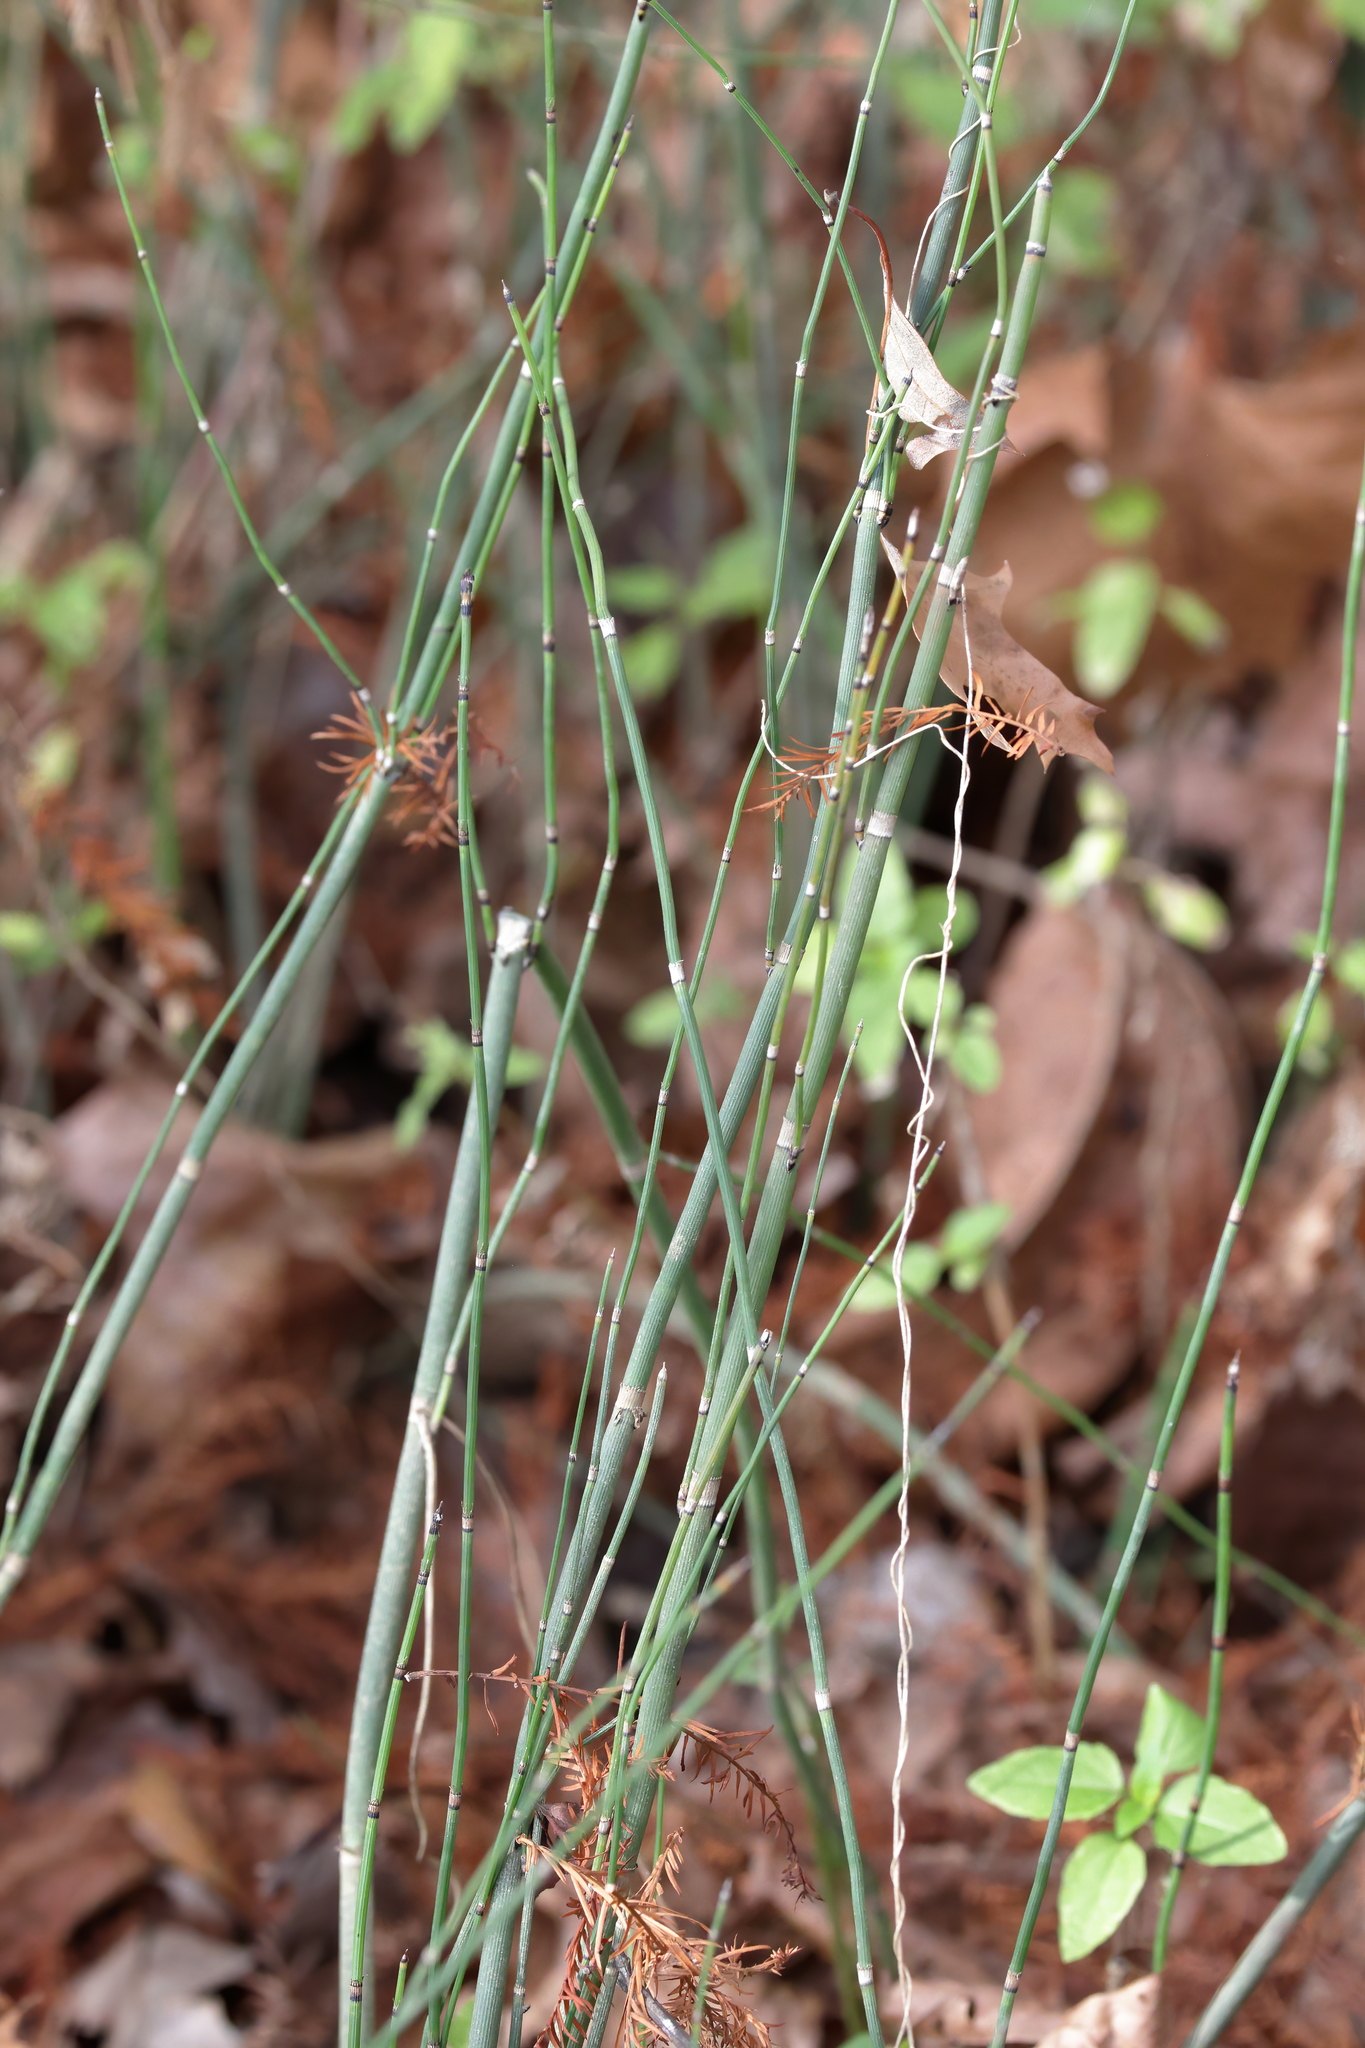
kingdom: Plantae
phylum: Tracheophyta
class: Polypodiopsida
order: Equisetales
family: Equisetaceae
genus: Equisetum
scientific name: Equisetum praealtum
